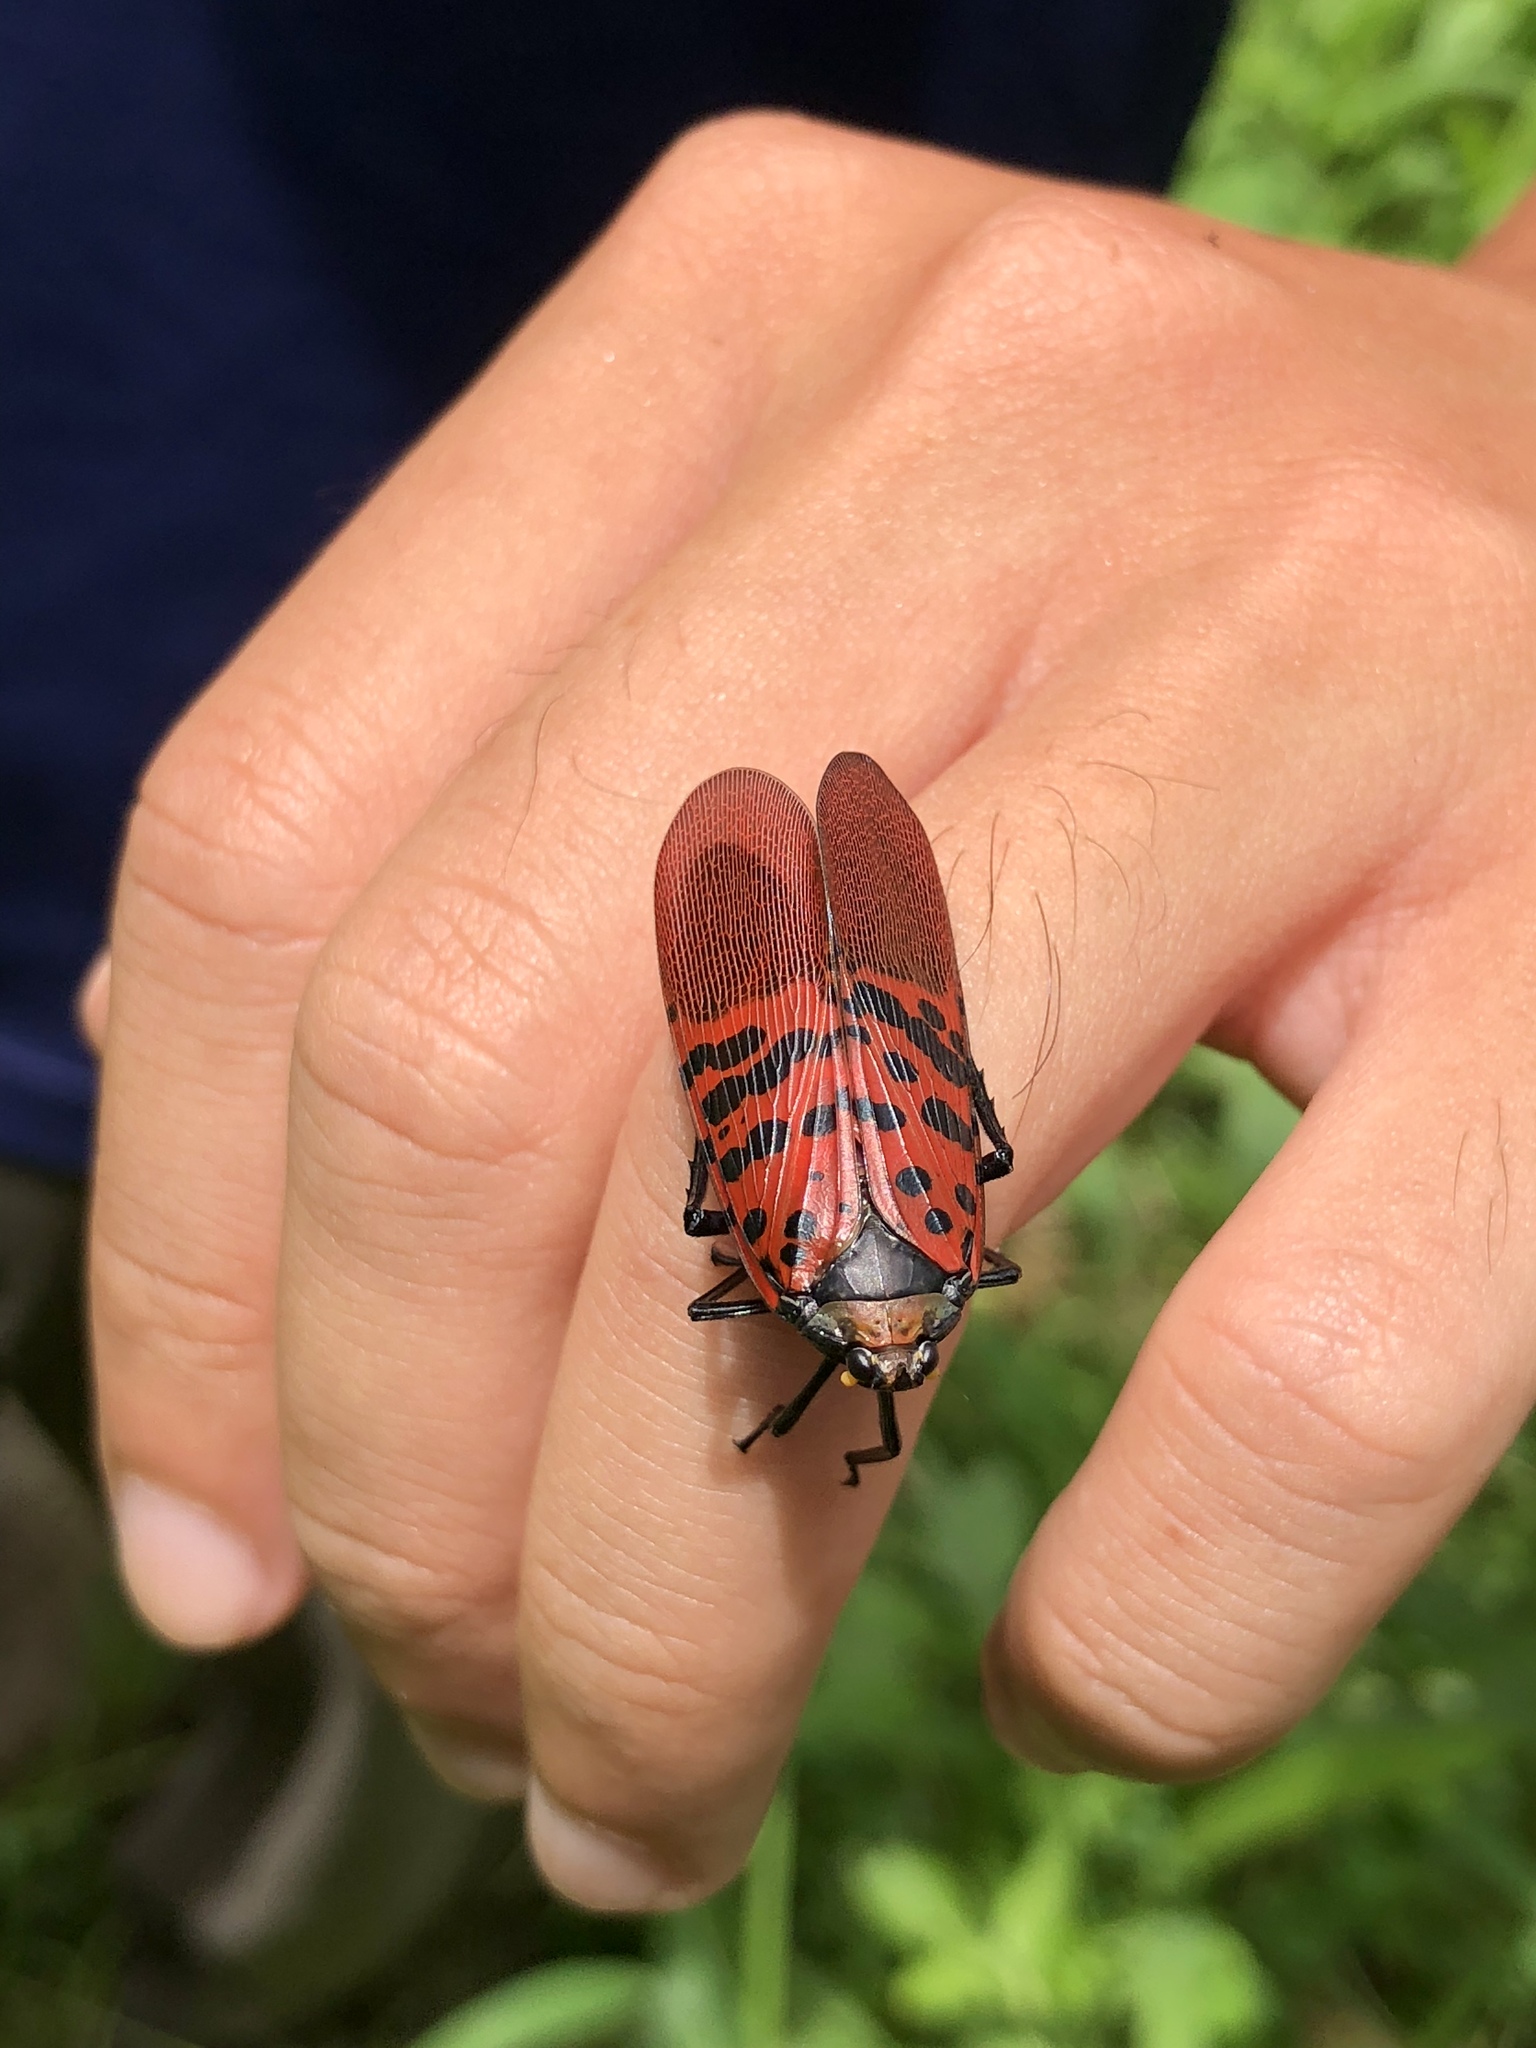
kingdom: Animalia
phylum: Arthropoda
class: Insecta
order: Hemiptera
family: Fulgoridae
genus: Lycorma
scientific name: Lycorma meliae
